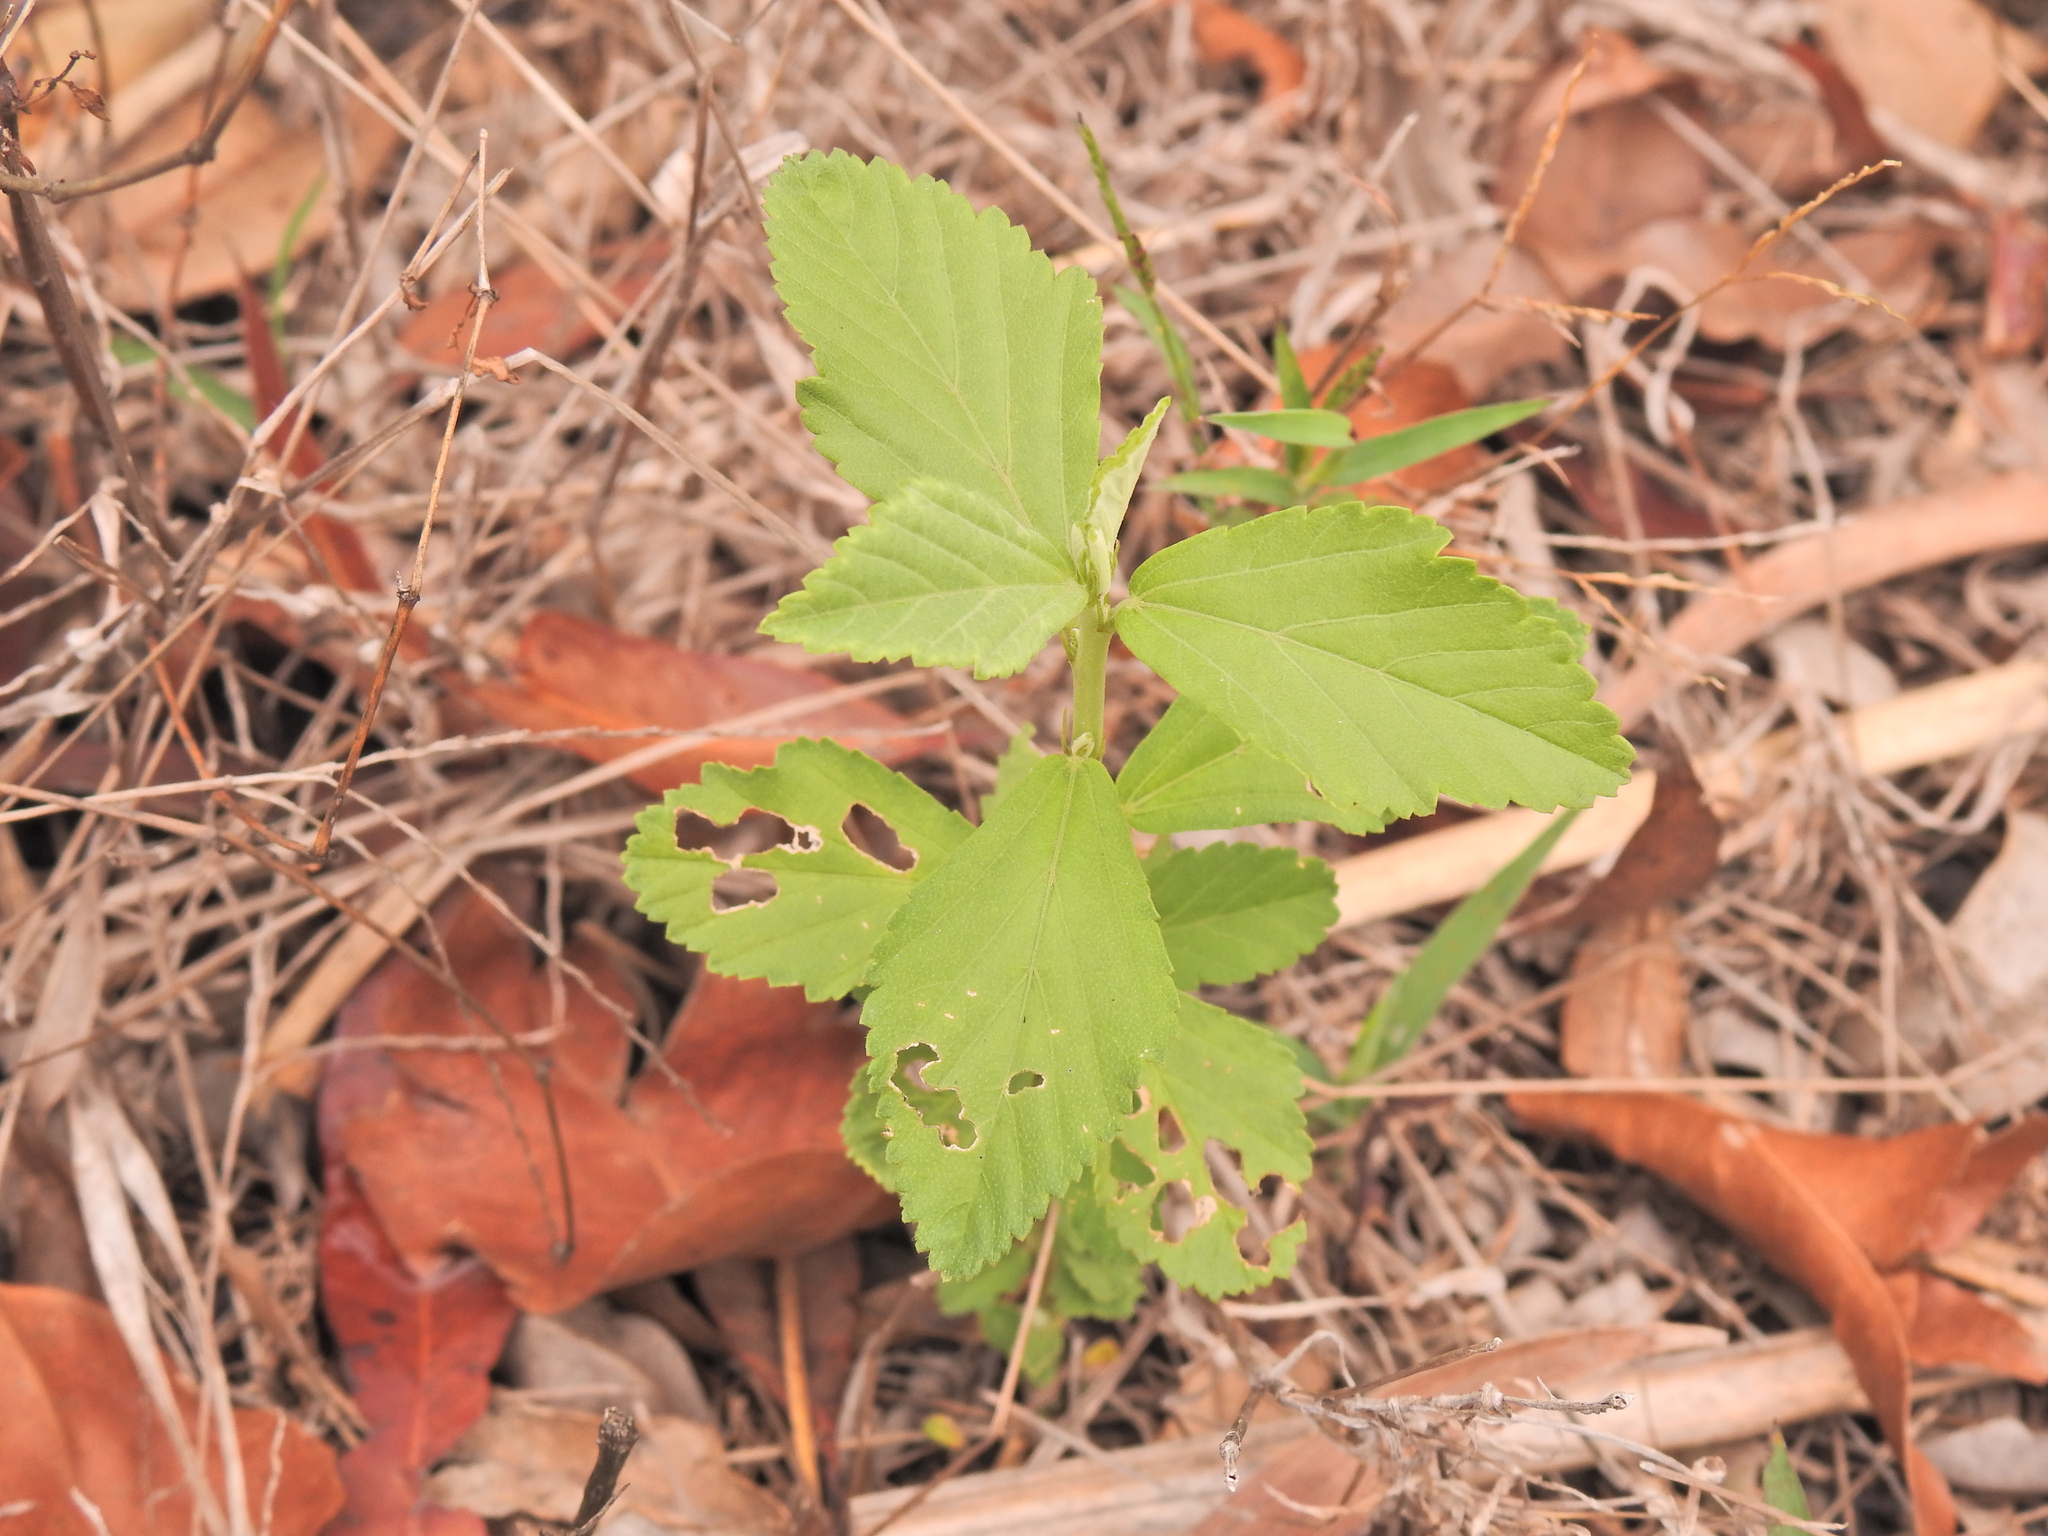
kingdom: Plantae
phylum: Tracheophyta
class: Magnoliopsida
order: Malvales
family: Malvaceae
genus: Sida
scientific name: Sida rhombifolia
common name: Queensland-hemp
